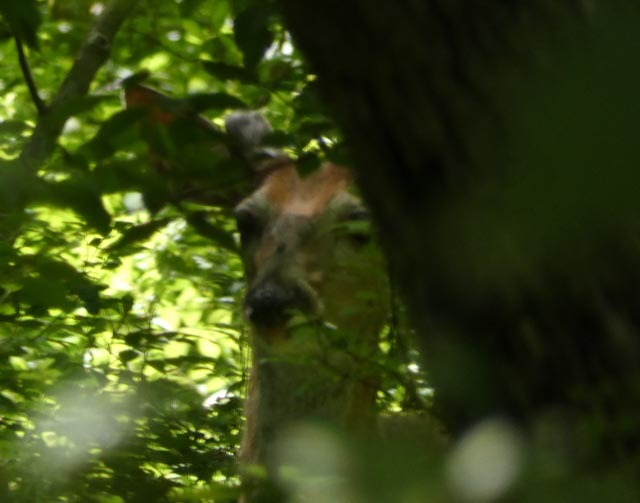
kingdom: Animalia
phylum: Chordata
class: Mammalia
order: Artiodactyla
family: Cervidae
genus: Odocoileus
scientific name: Odocoileus virginianus
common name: White-tailed deer
